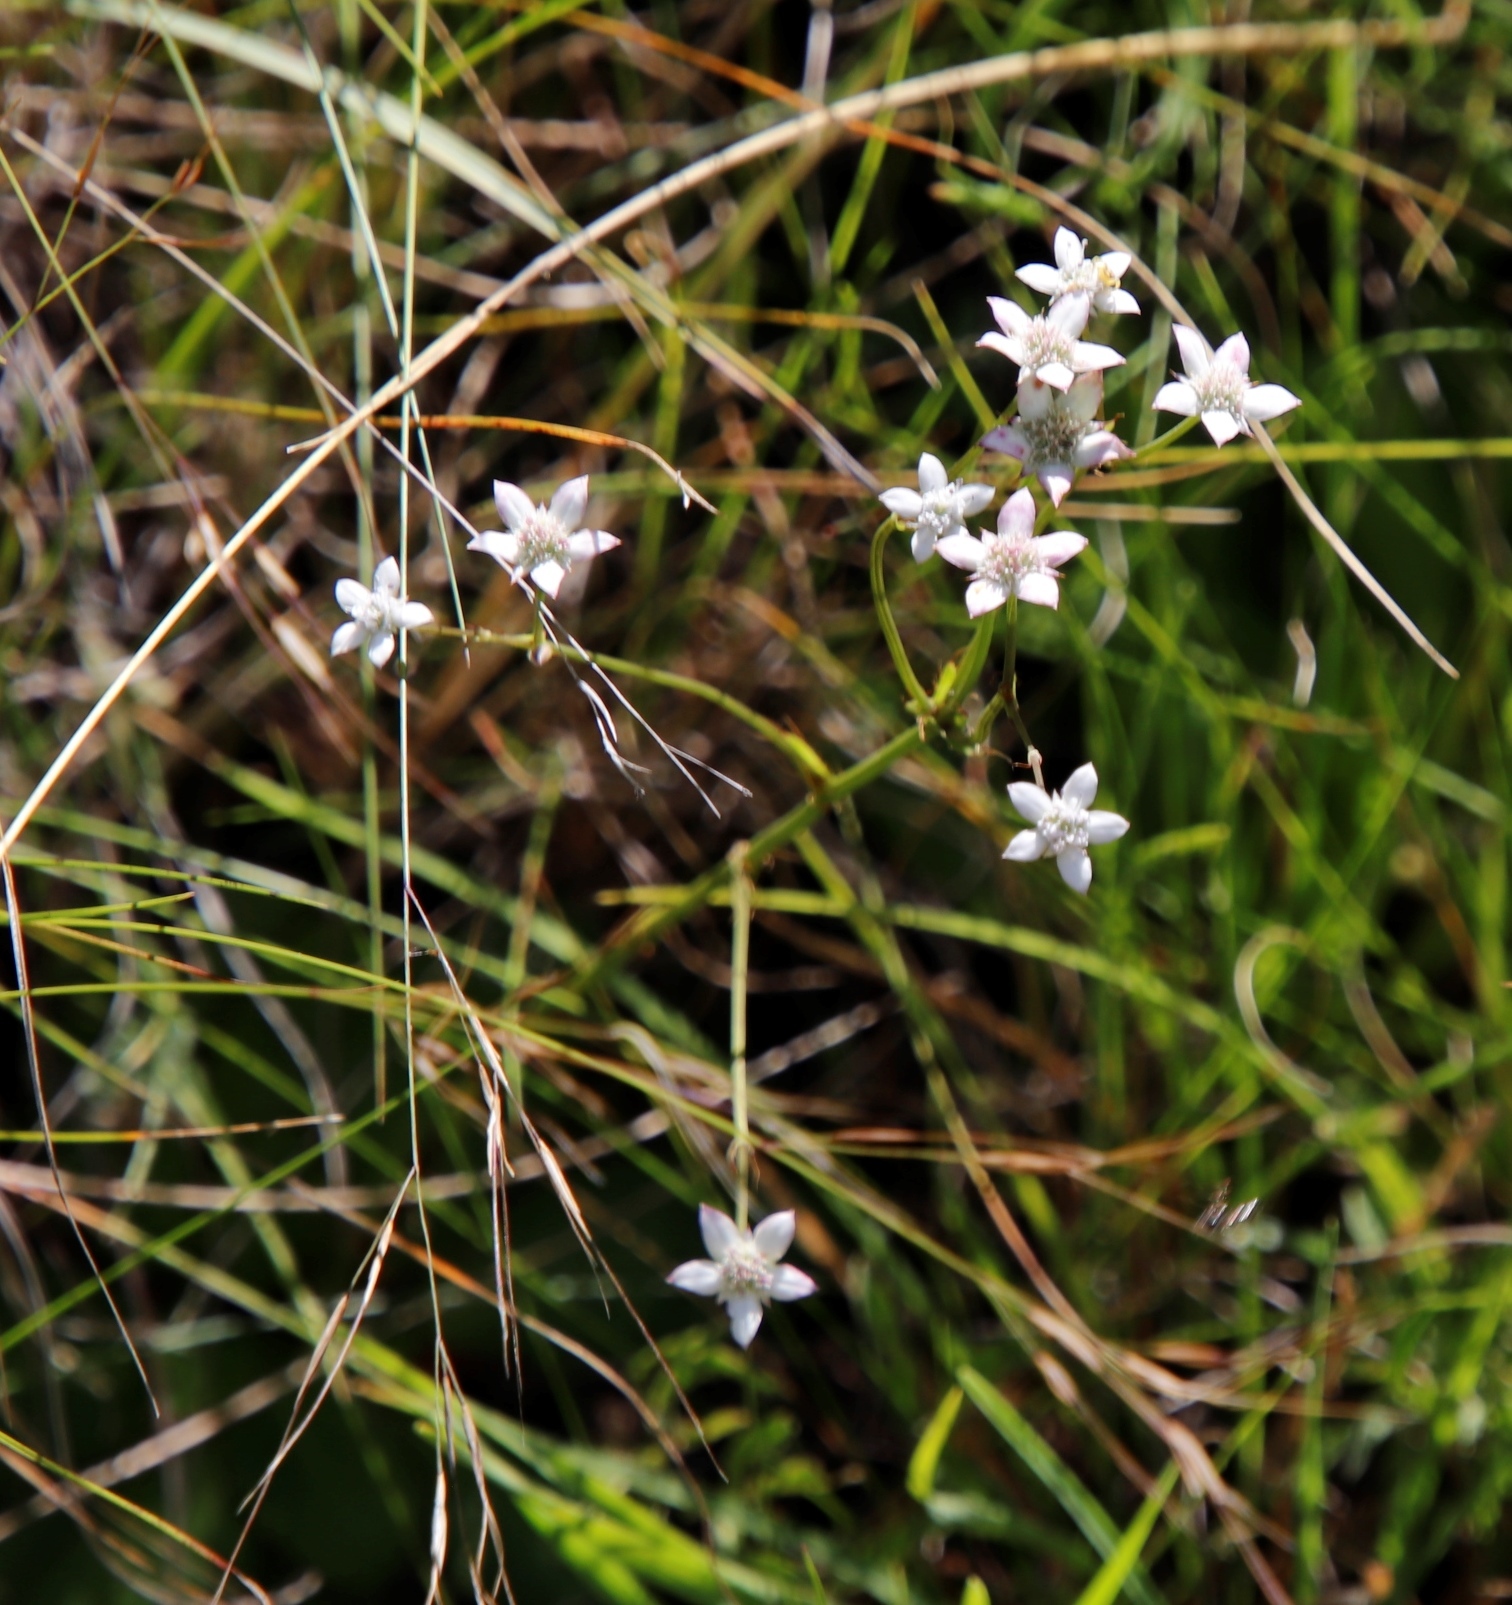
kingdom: Plantae
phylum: Tracheophyta
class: Magnoliopsida
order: Apiales
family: Apiaceae
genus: Alepidea
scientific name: Alepidea natalensis
